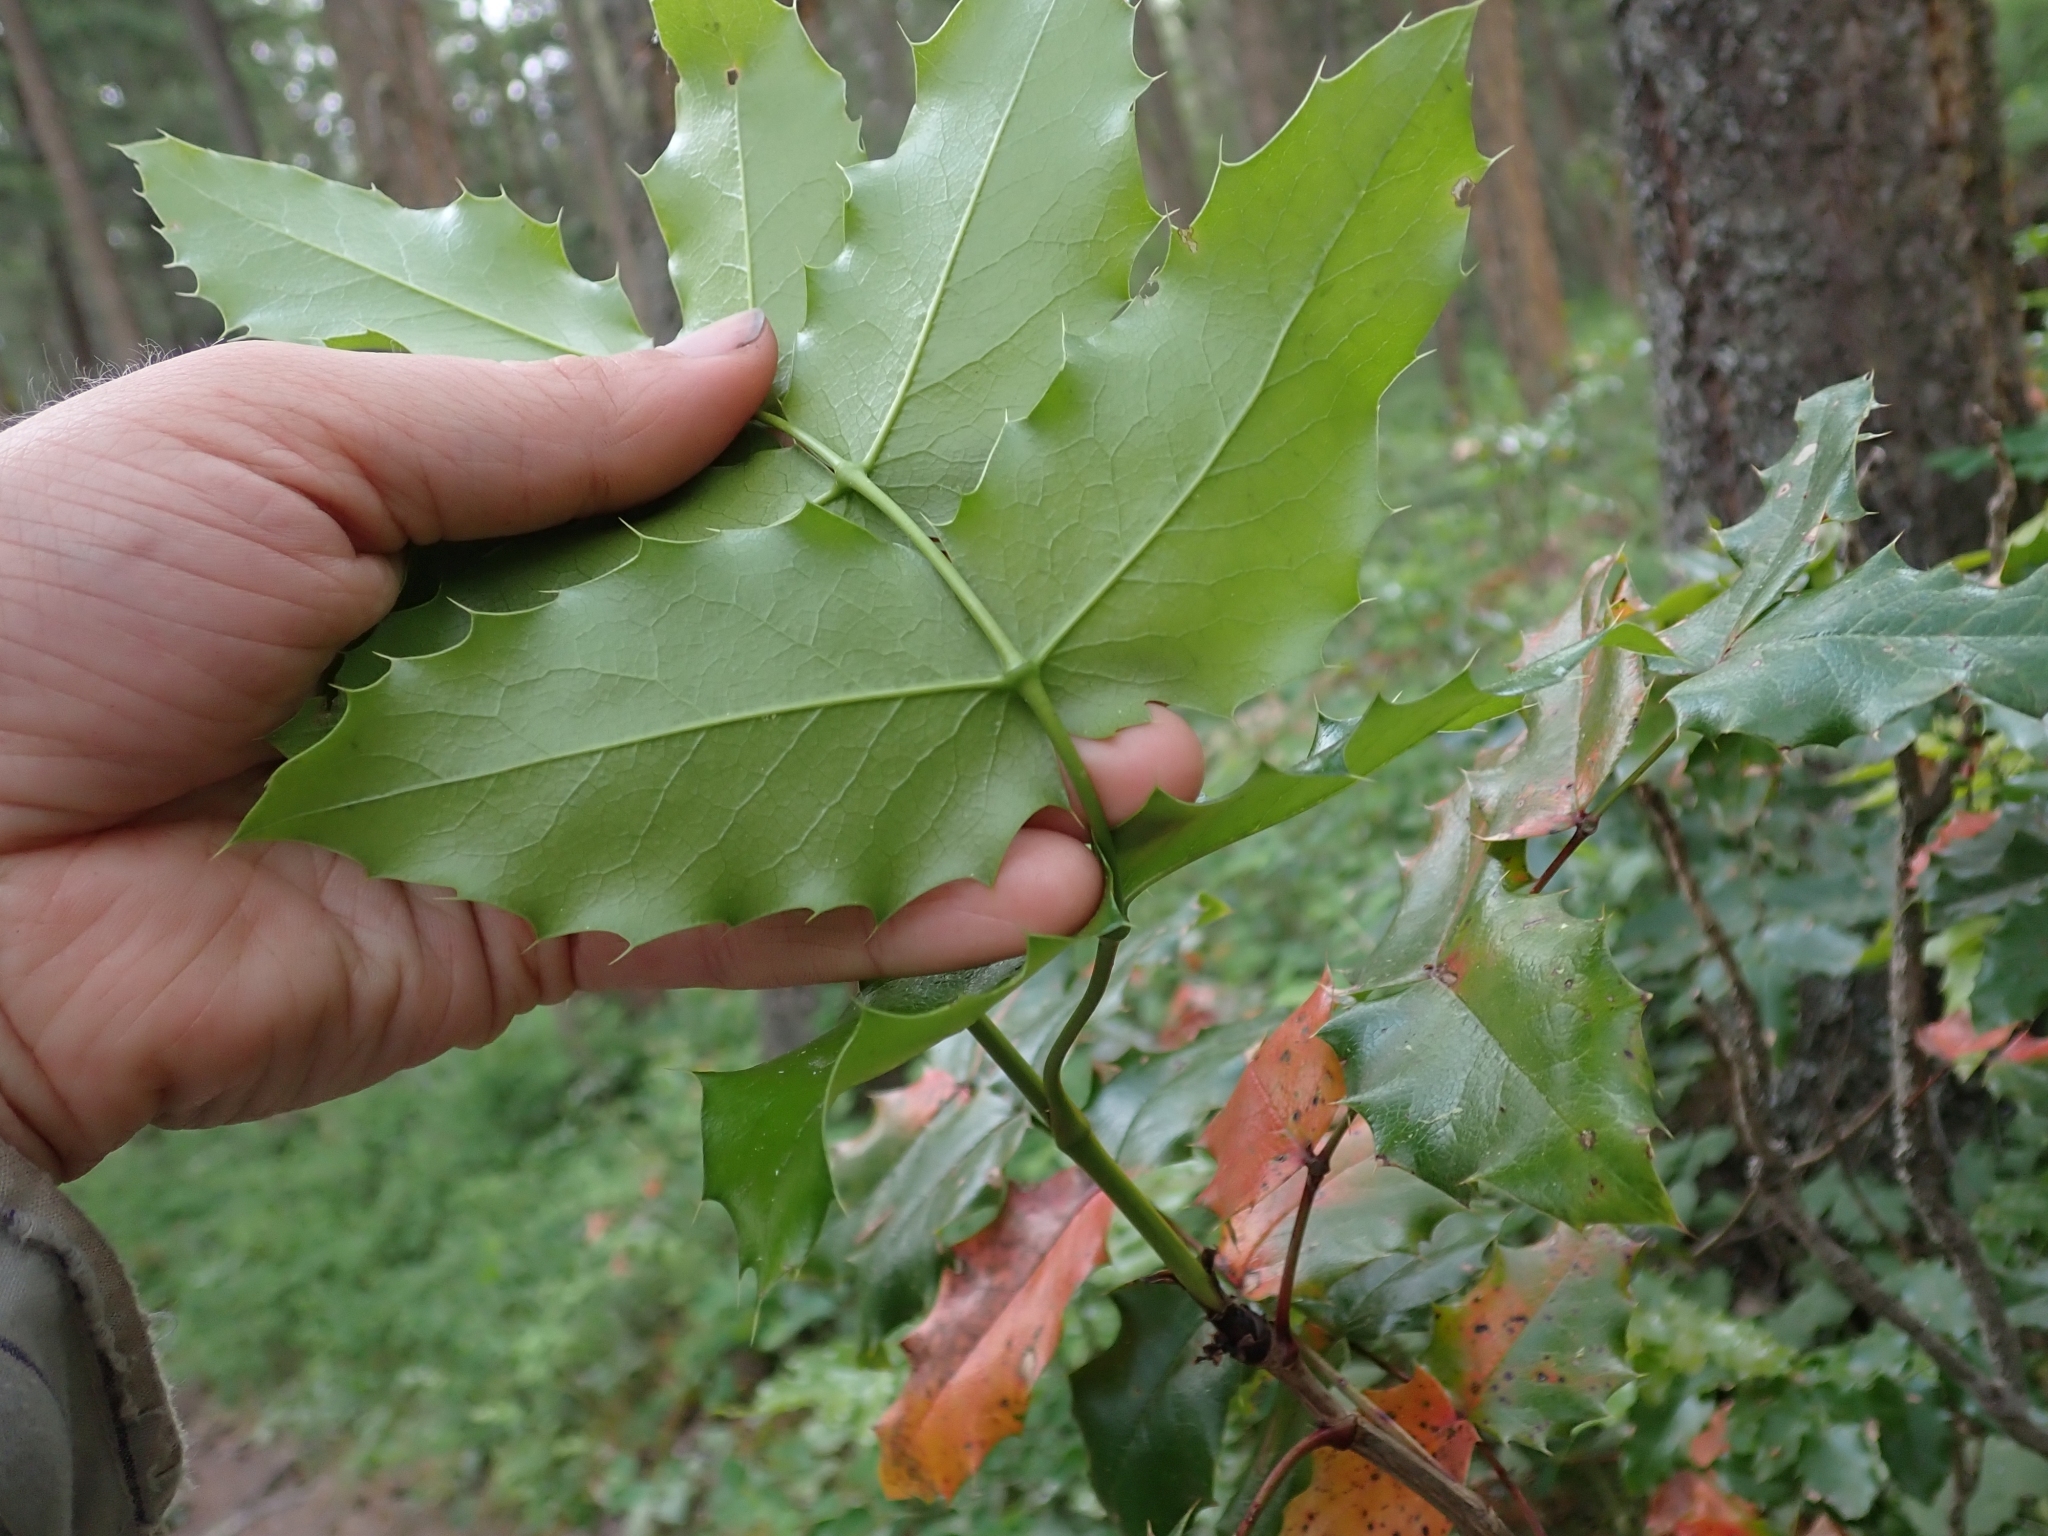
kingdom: Plantae
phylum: Tracheophyta
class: Magnoliopsida
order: Ranunculales
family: Berberidaceae
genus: Mahonia
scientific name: Mahonia aquifolium
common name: Oregon-grape
